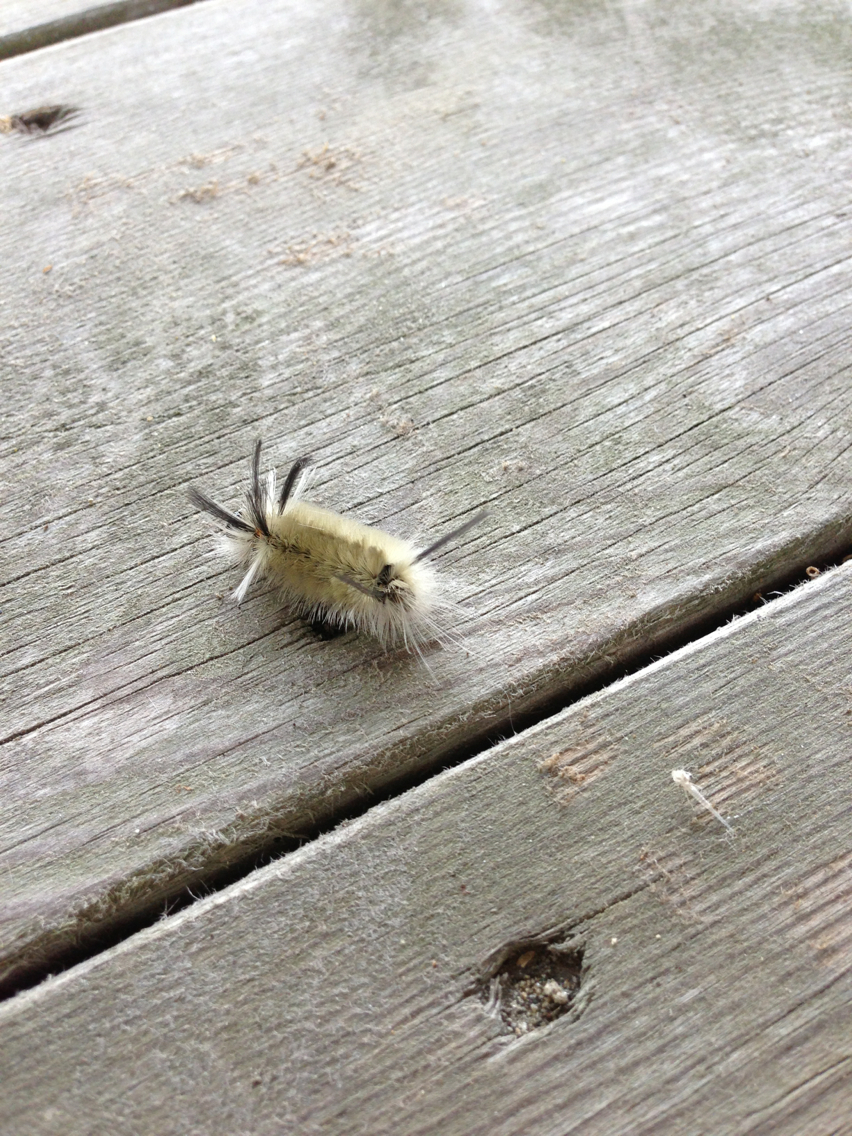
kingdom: Animalia
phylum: Arthropoda
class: Insecta
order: Lepidoptera
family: Erebidae
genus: Halysidota
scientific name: Halysidota tessellaris
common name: Banded tussock moth
